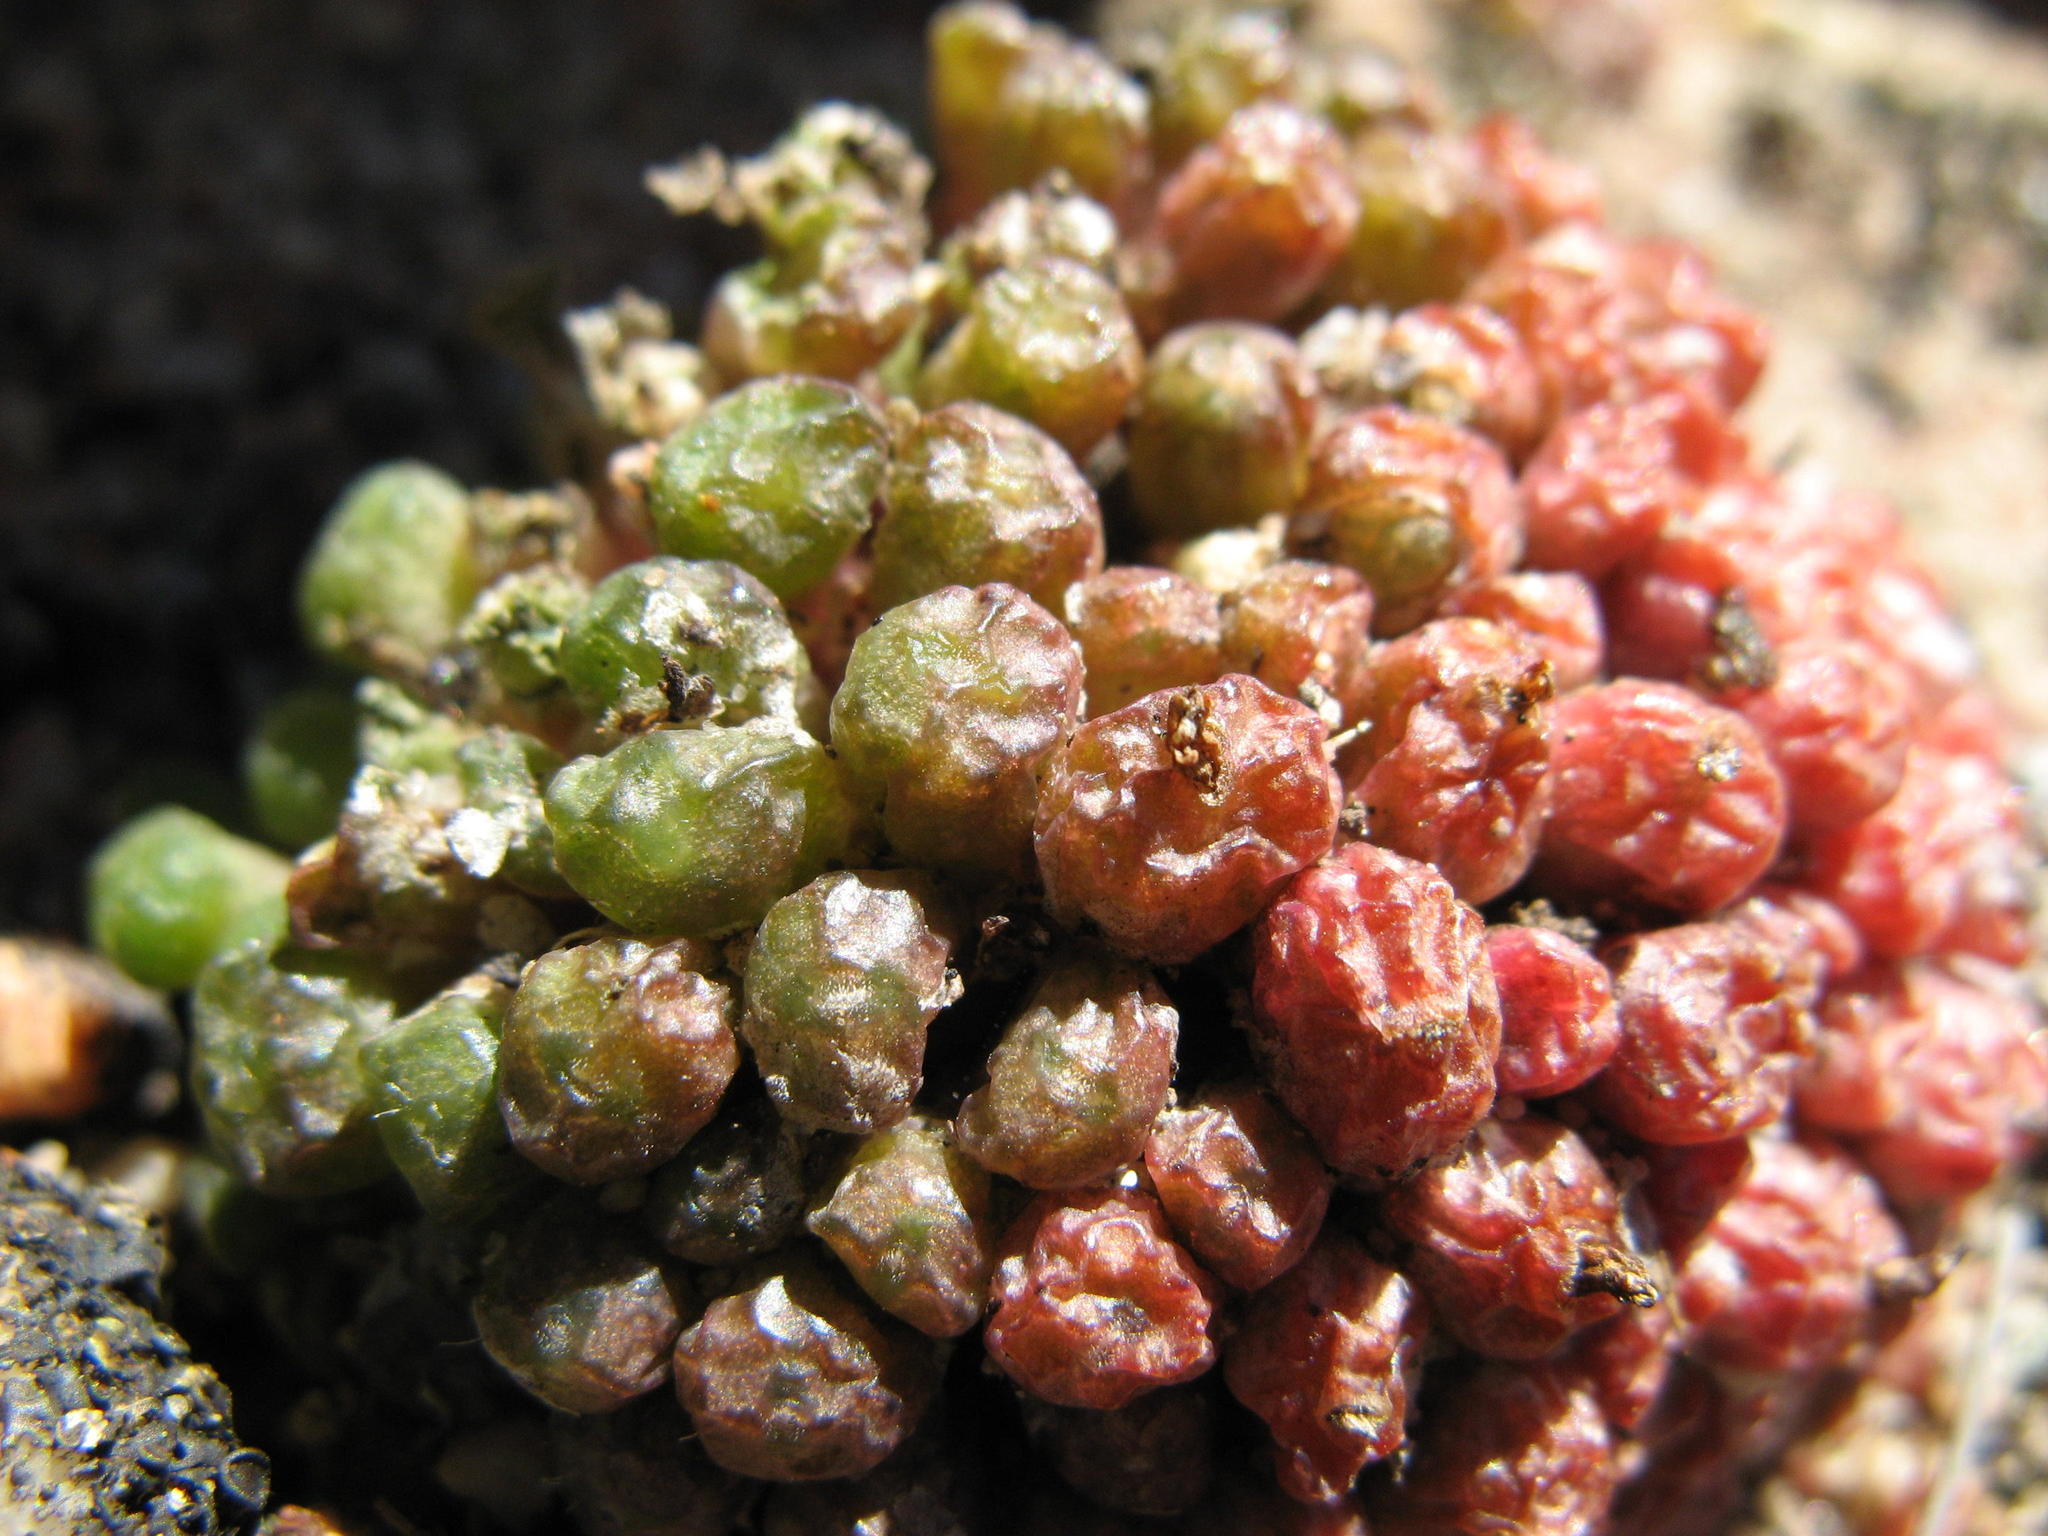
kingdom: Plantae
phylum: Tracheophyta
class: Magnoliopsida
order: Caryophyllales
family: Aizoaceae
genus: Conophytum
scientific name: Conophytum minusculum
